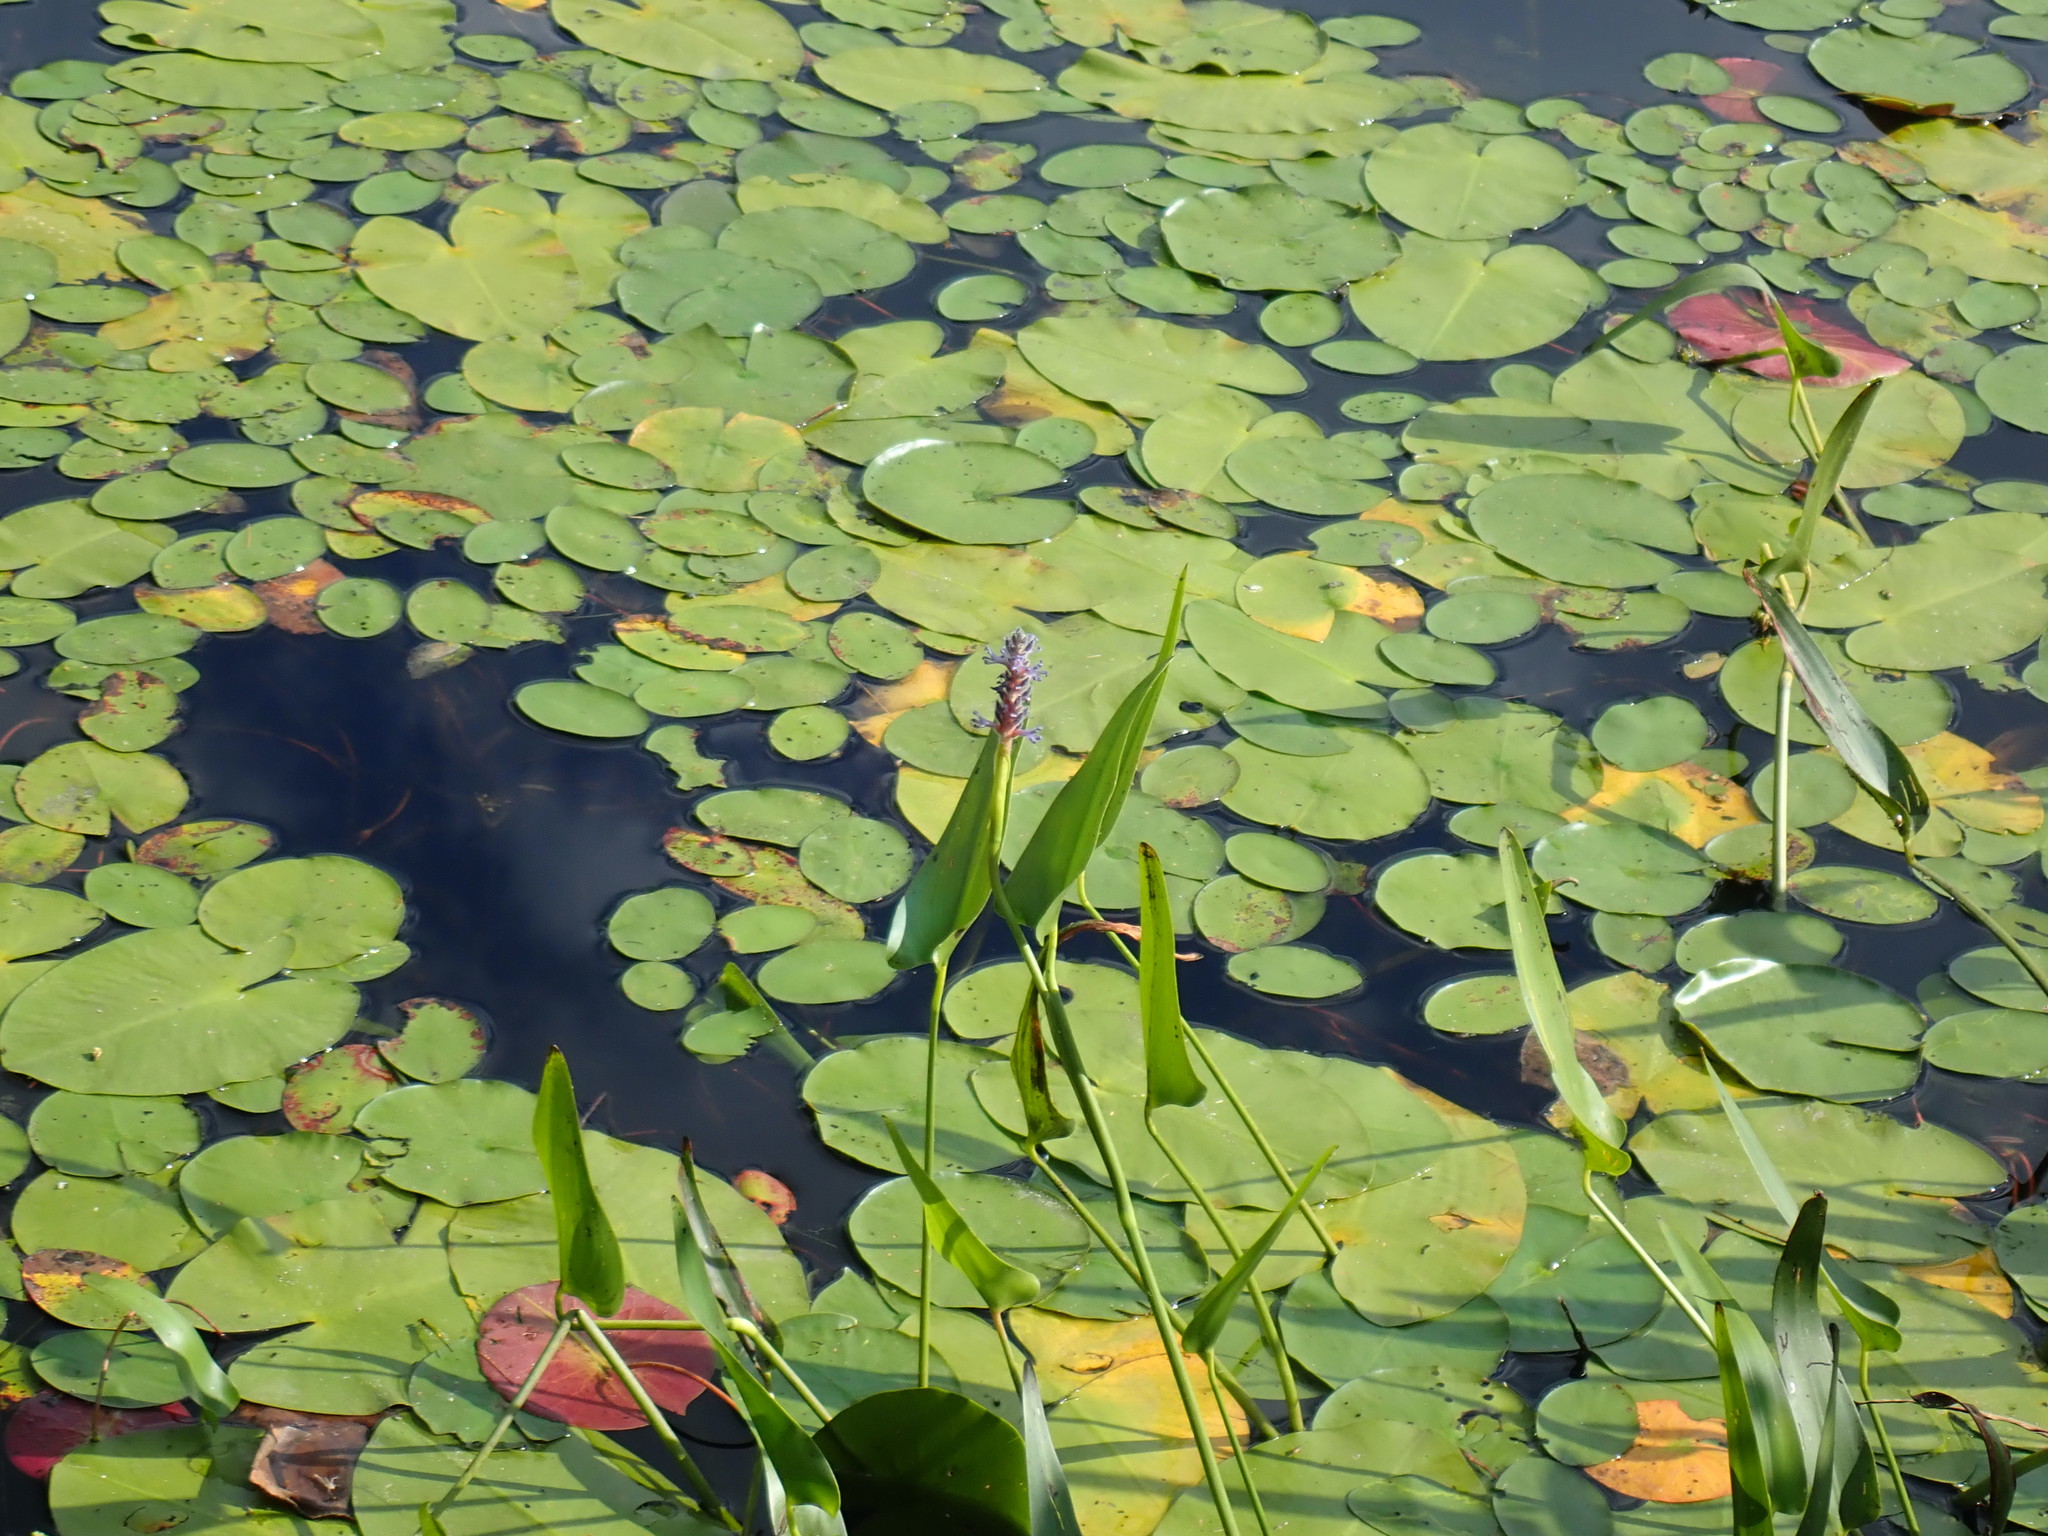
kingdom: Plantae
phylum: Tracheophyta
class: Liliopsida
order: Commelinales
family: Pontederiaceae
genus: Pontederia
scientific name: Pontederia cordata
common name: Pickerelweed
